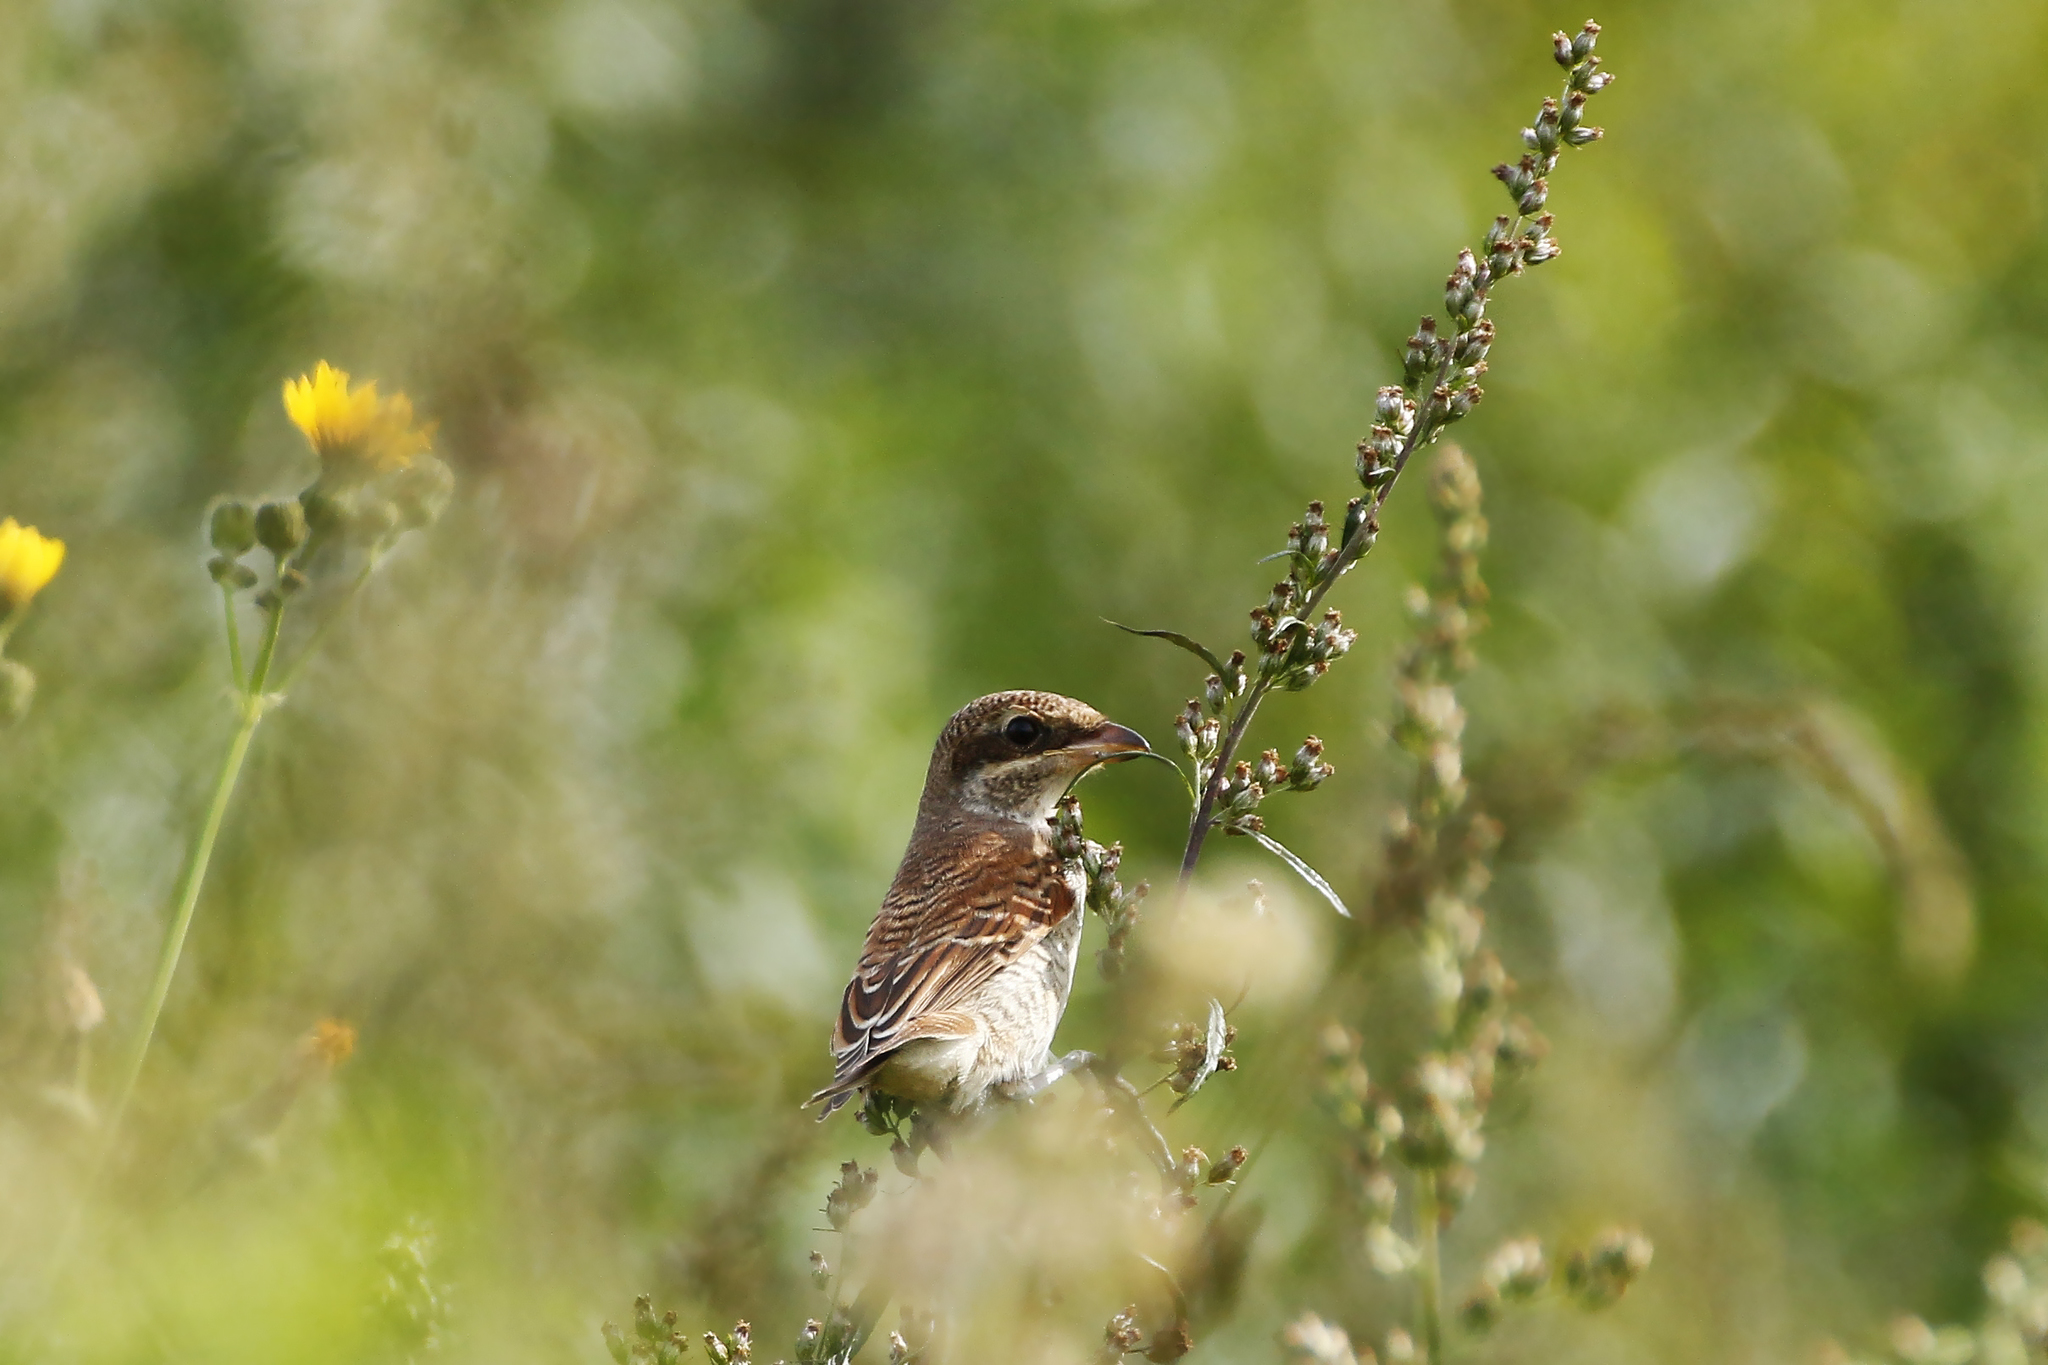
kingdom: Animalia
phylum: Chordata
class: Aves
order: Passeriformes
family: Laniidae
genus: Lanius
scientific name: Lanius collurio
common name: Red-backed shrike
